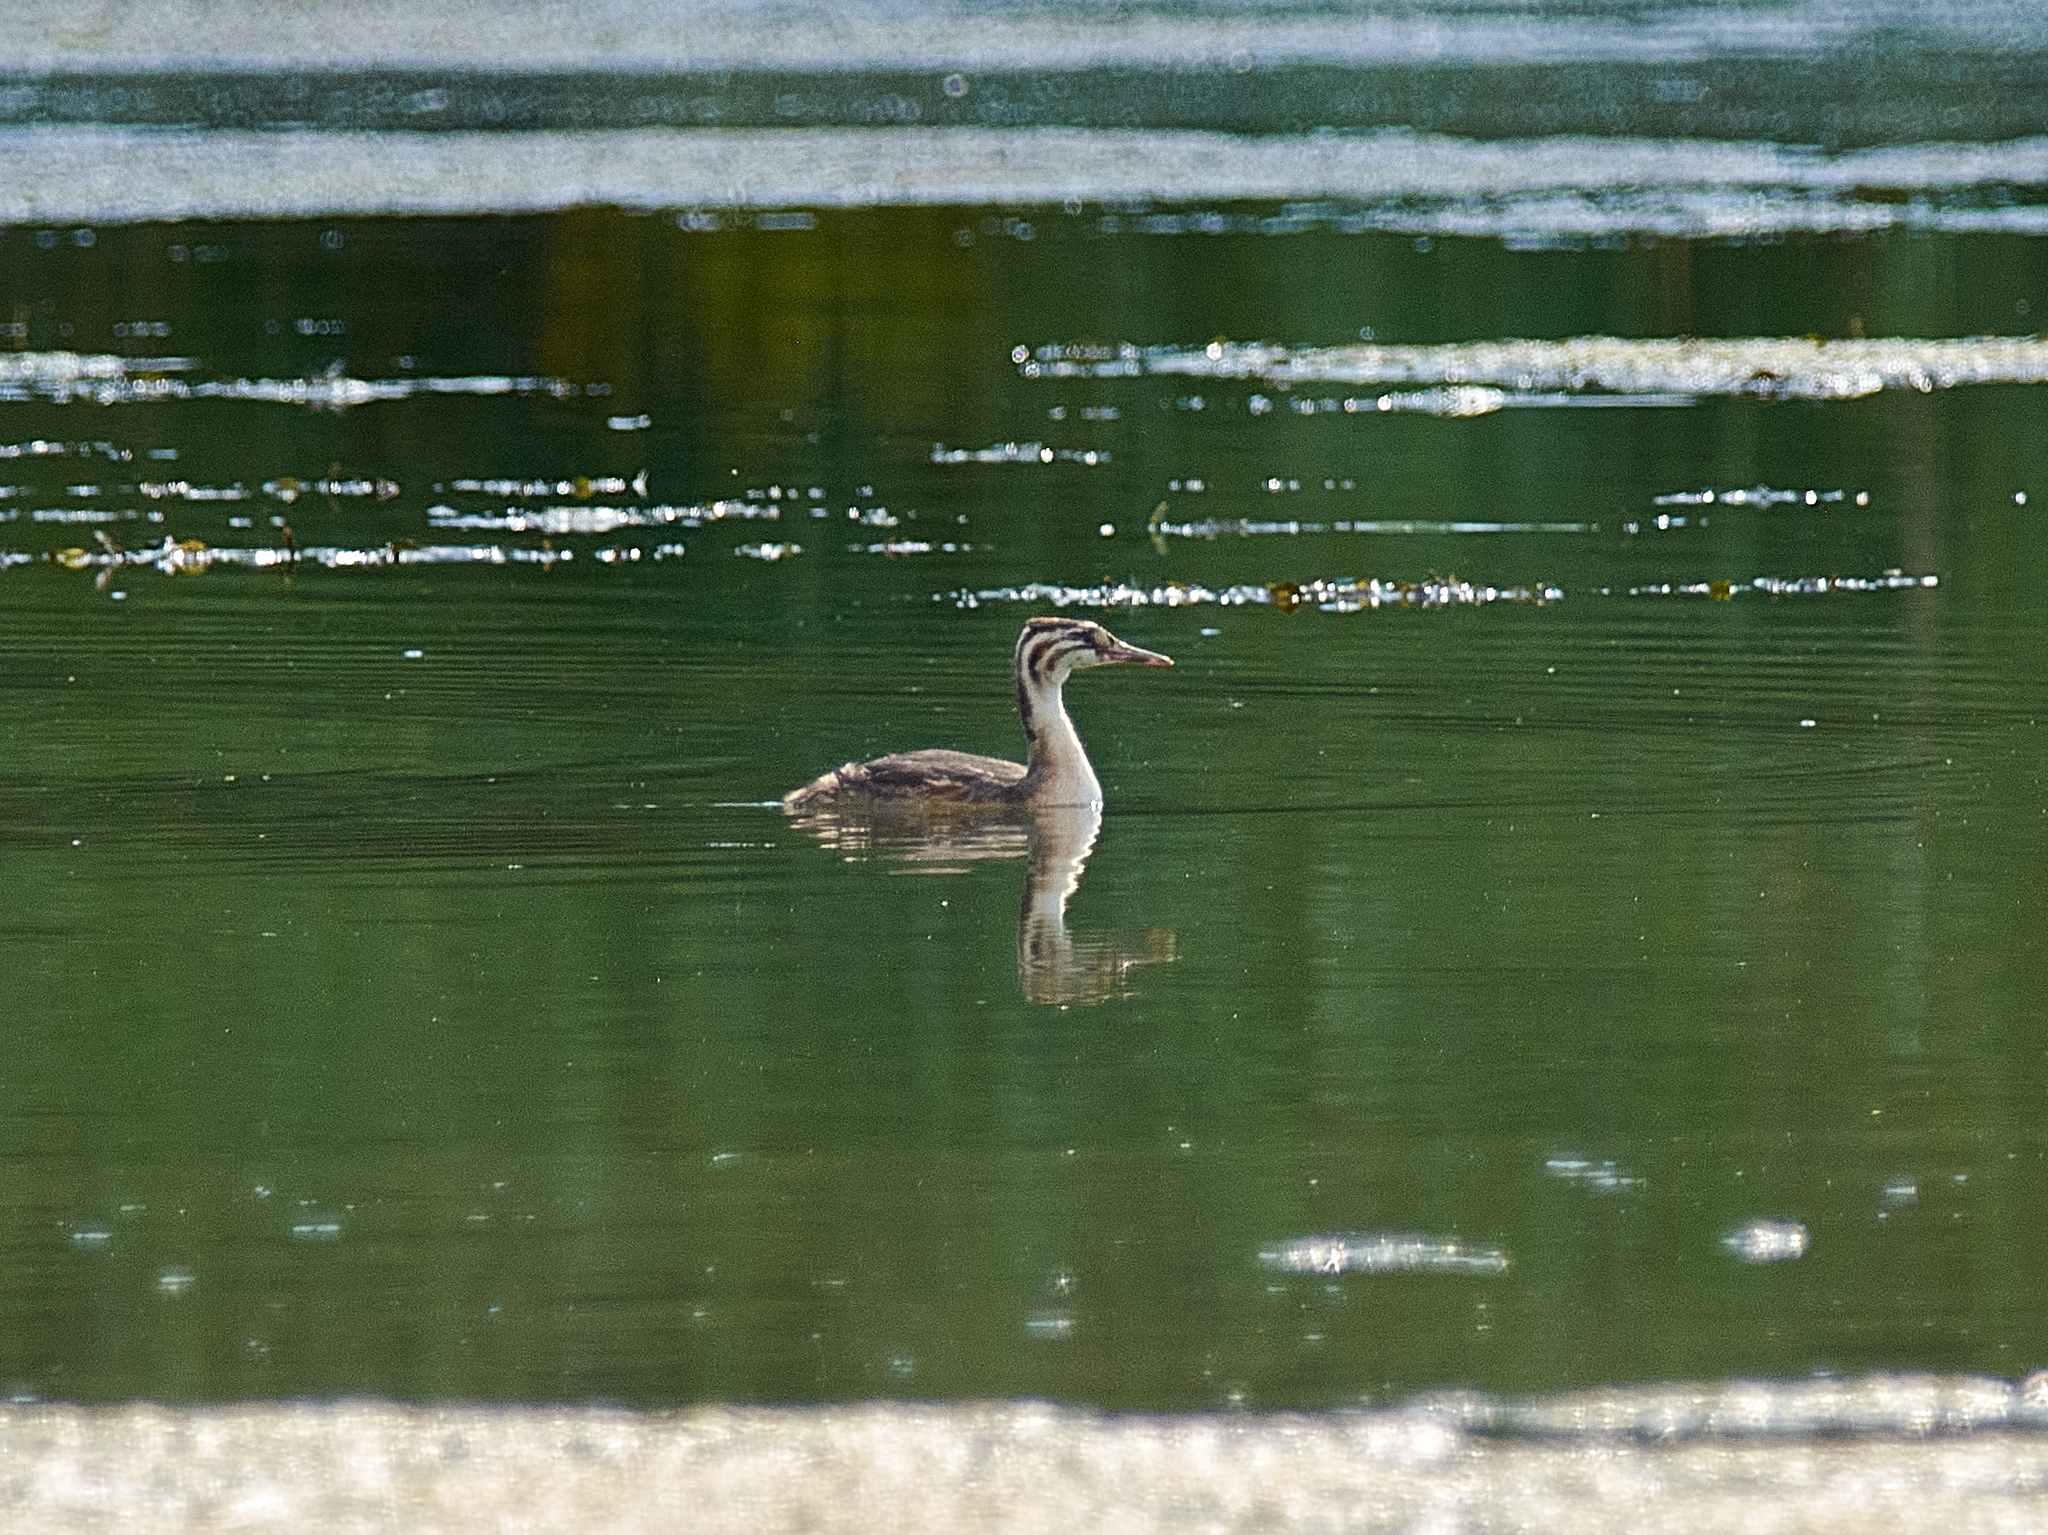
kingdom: Animalia
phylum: Chordata
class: Aves
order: Podicipediformes
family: Podicipedidae
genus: Podiceps
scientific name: Podiceps cristatus
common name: Great crested grebe
